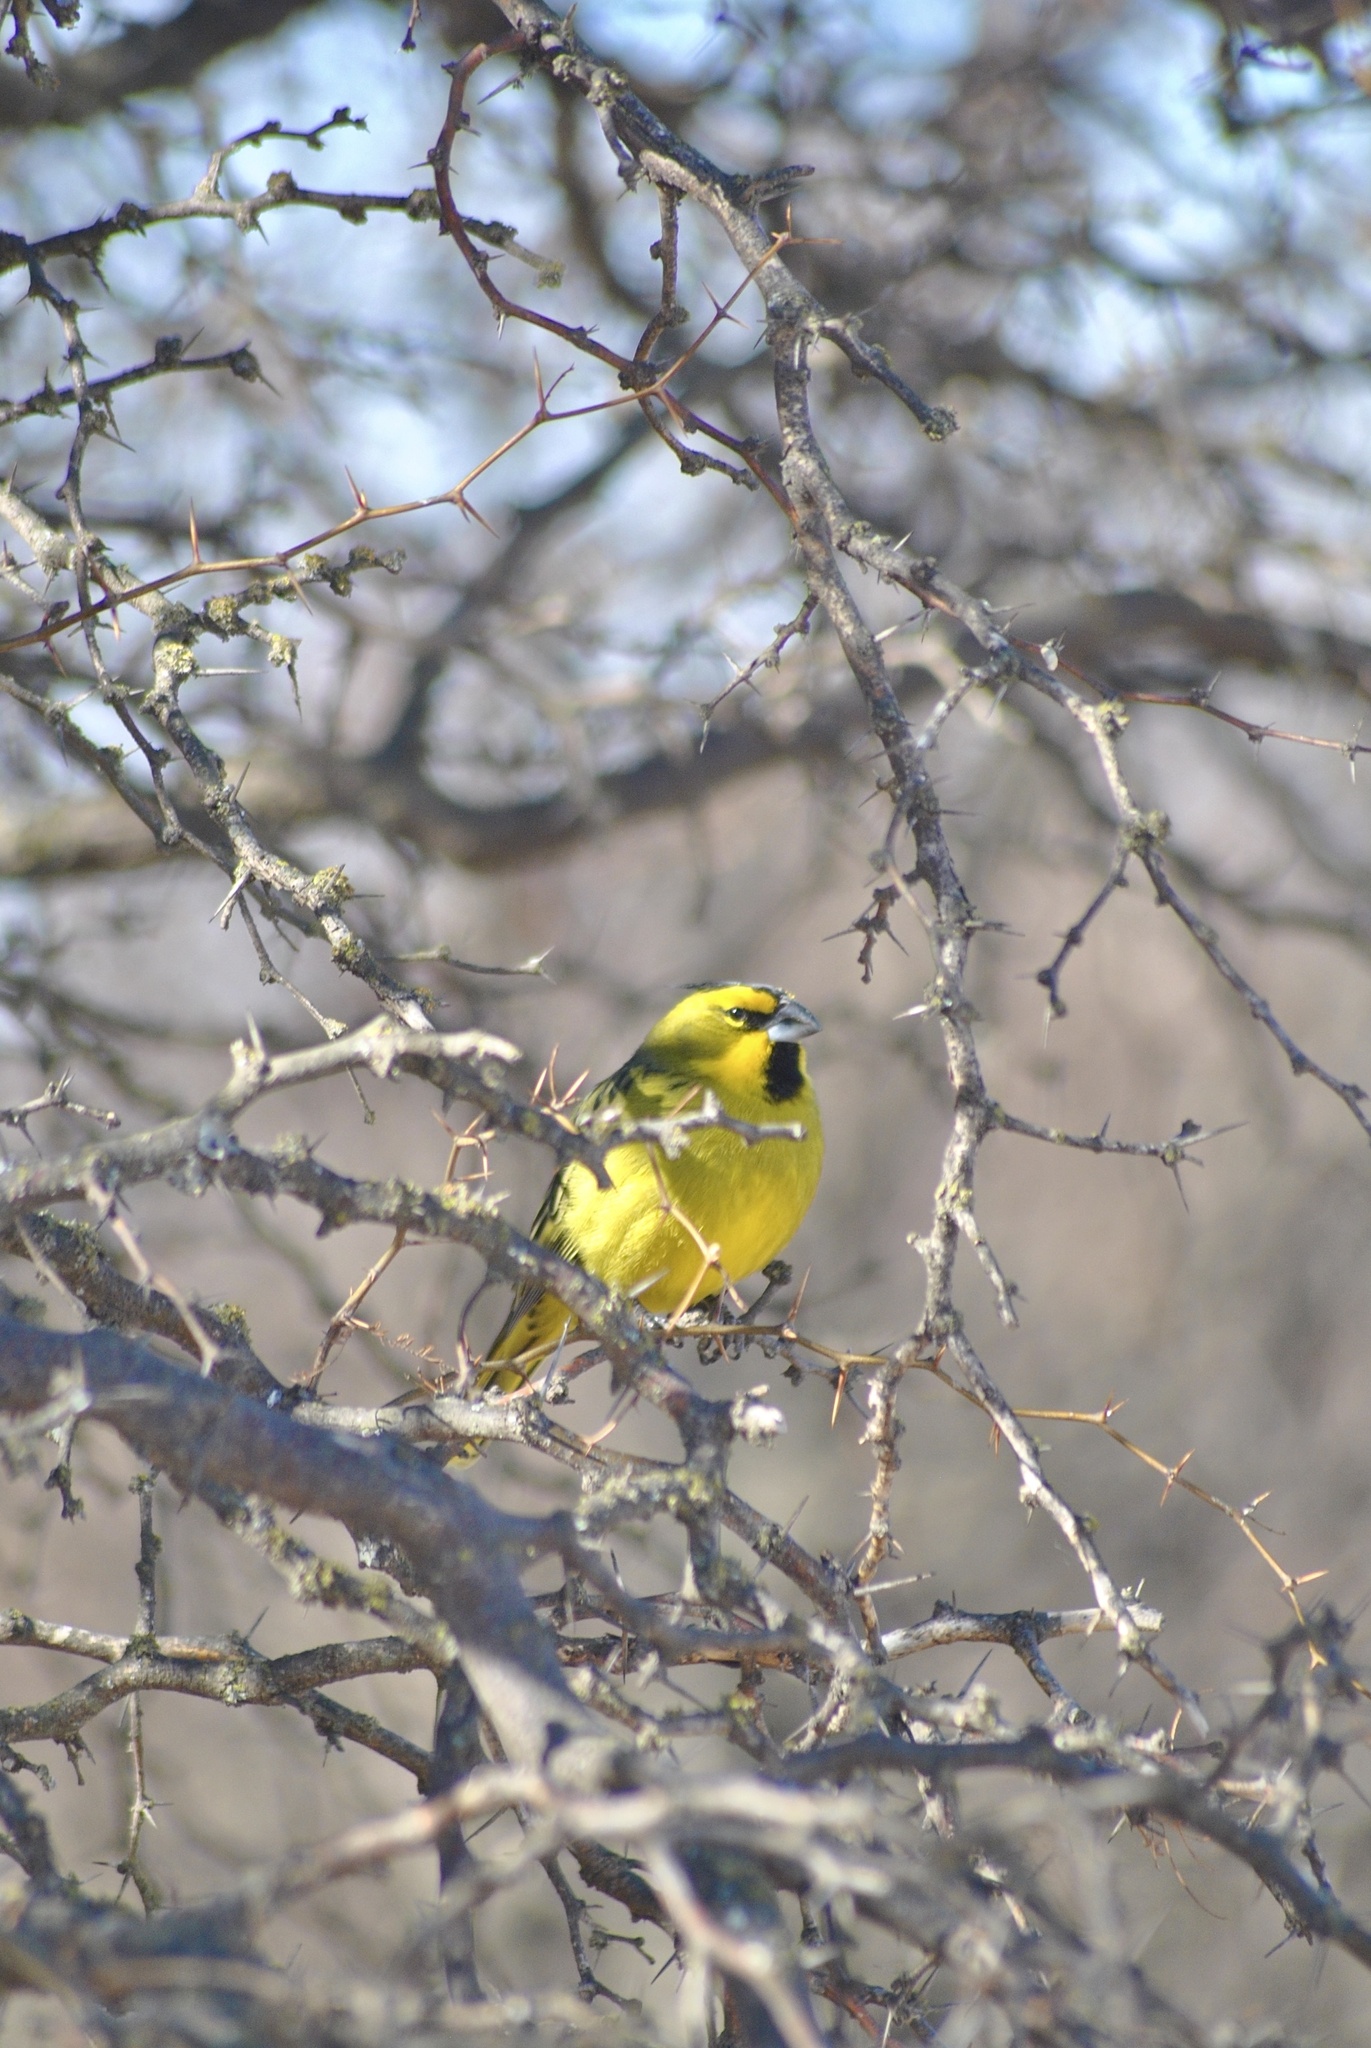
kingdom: Animalia
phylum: Chordata
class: Aves
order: Passeriformes
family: Thraupidae
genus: Gubernatrix
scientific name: Gubernatrix cristata
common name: Yellow cardinal
